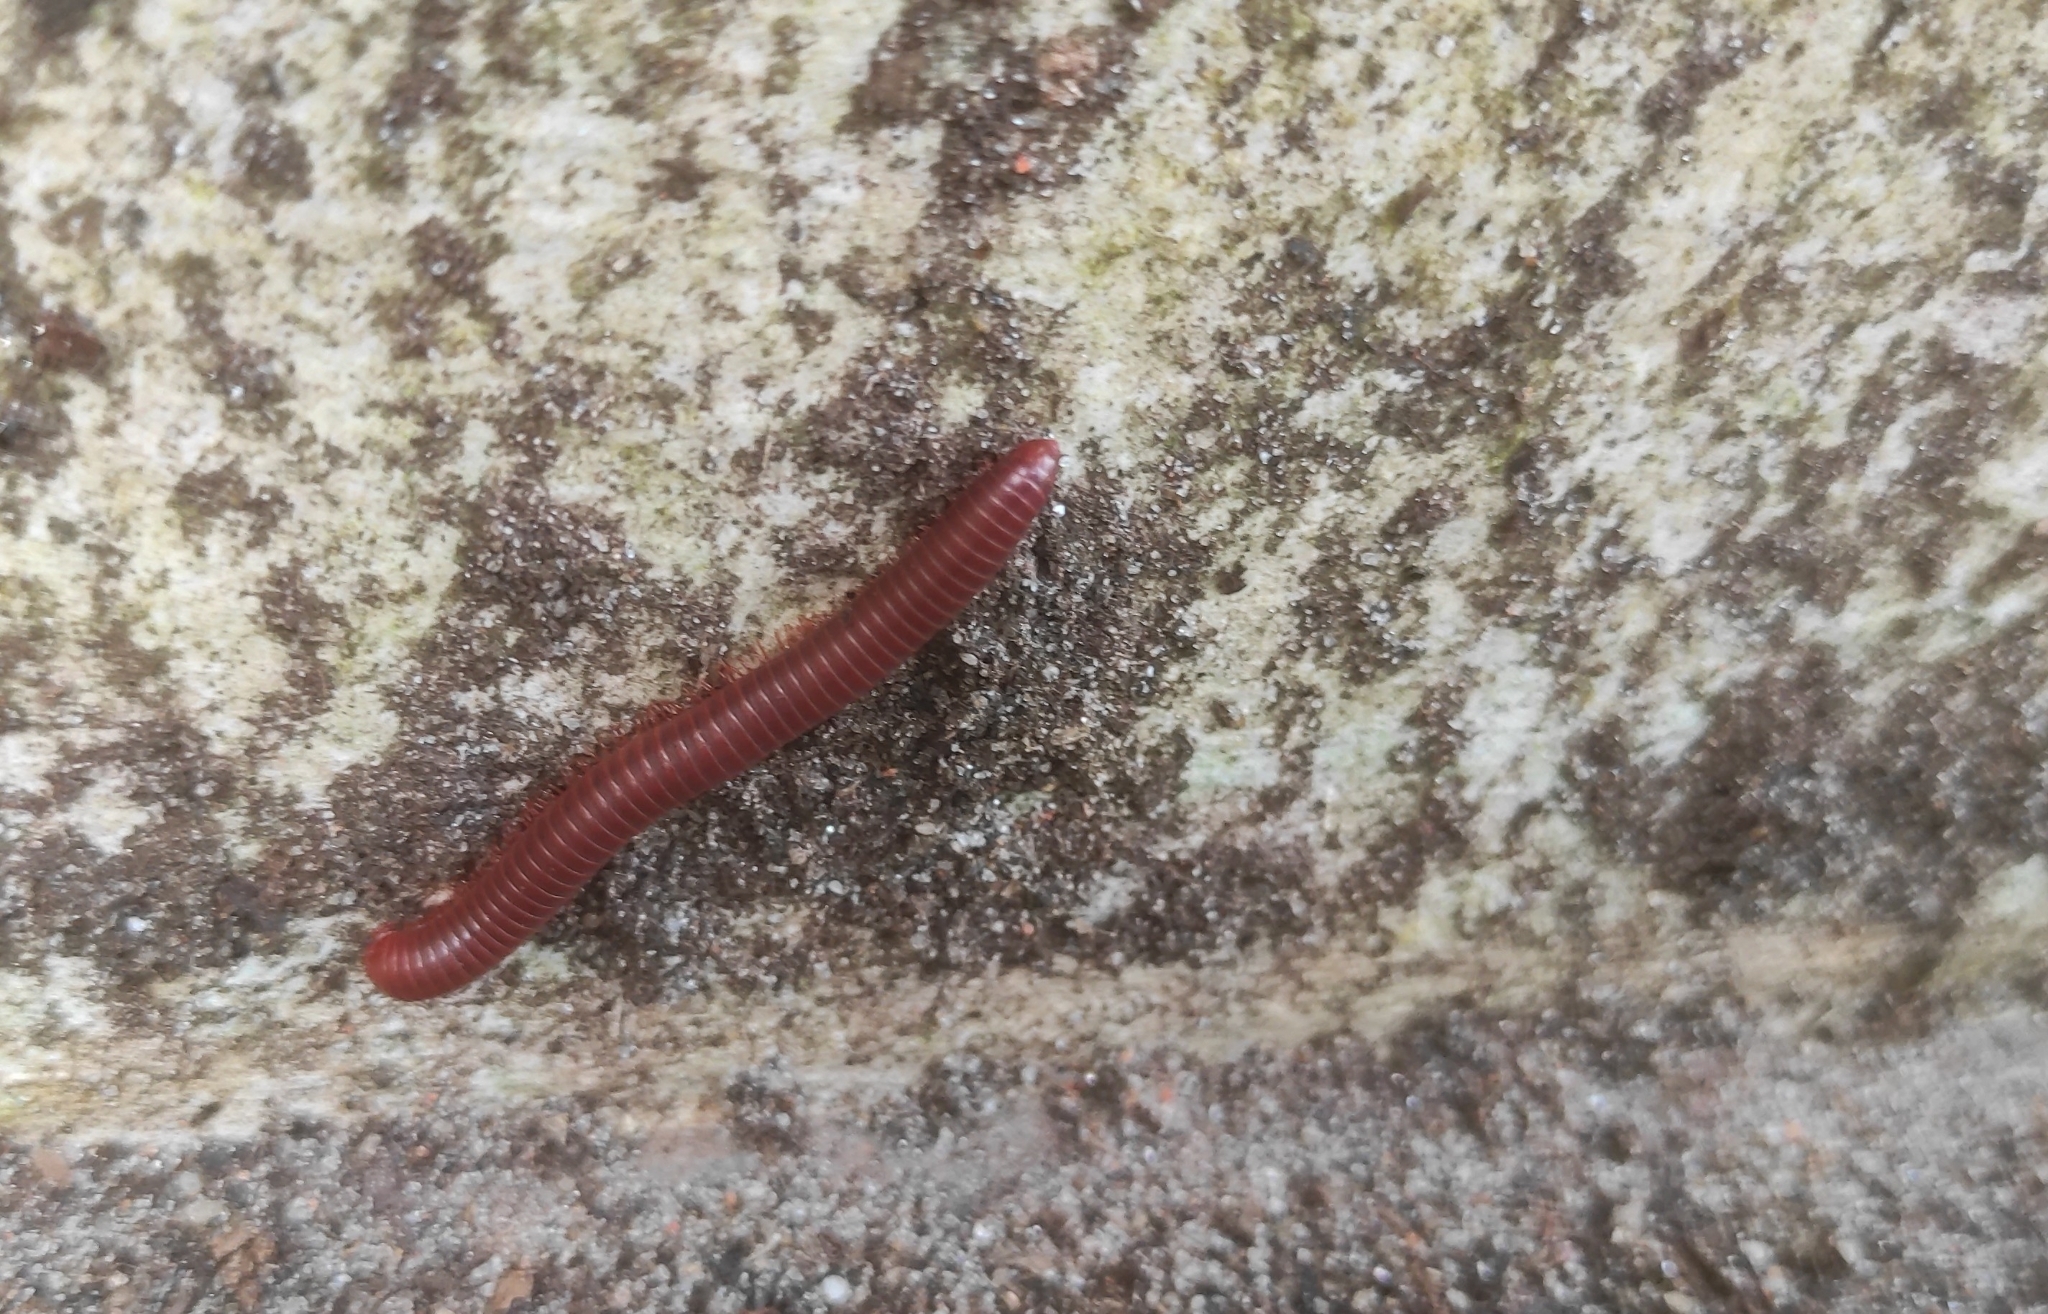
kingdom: Animalia
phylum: Arthropoda
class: Diplopoda
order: Spirobolida
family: Pachybolidae
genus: Trigoniulus
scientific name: Trigoniulus corallinus
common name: Millipede
